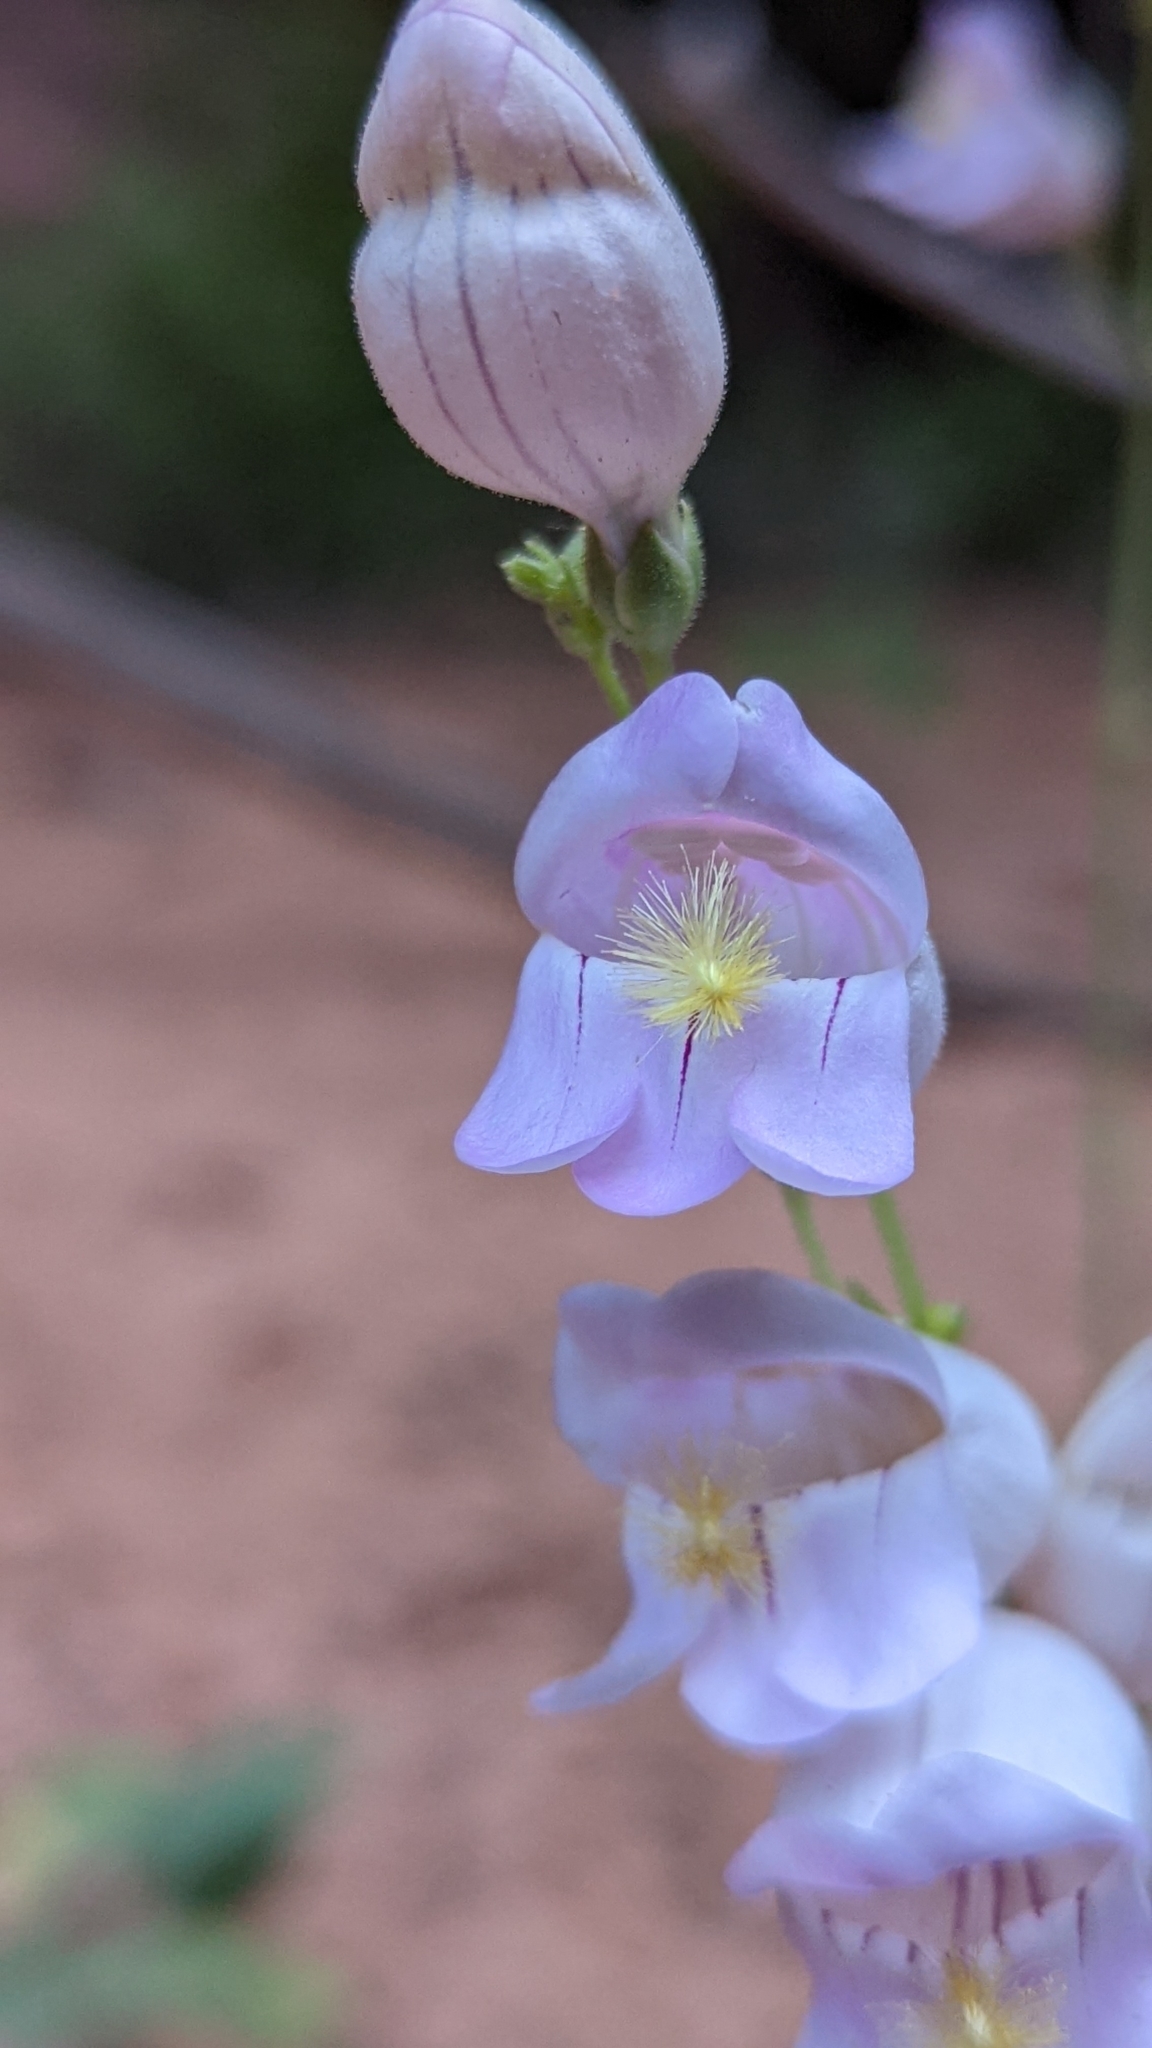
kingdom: Plantae
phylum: Tracheophyta
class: Magnoliopsida
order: Lamiales
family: Plantaginaceae
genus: Penstemon
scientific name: Penstemon palmeri
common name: Palmer penstemon
